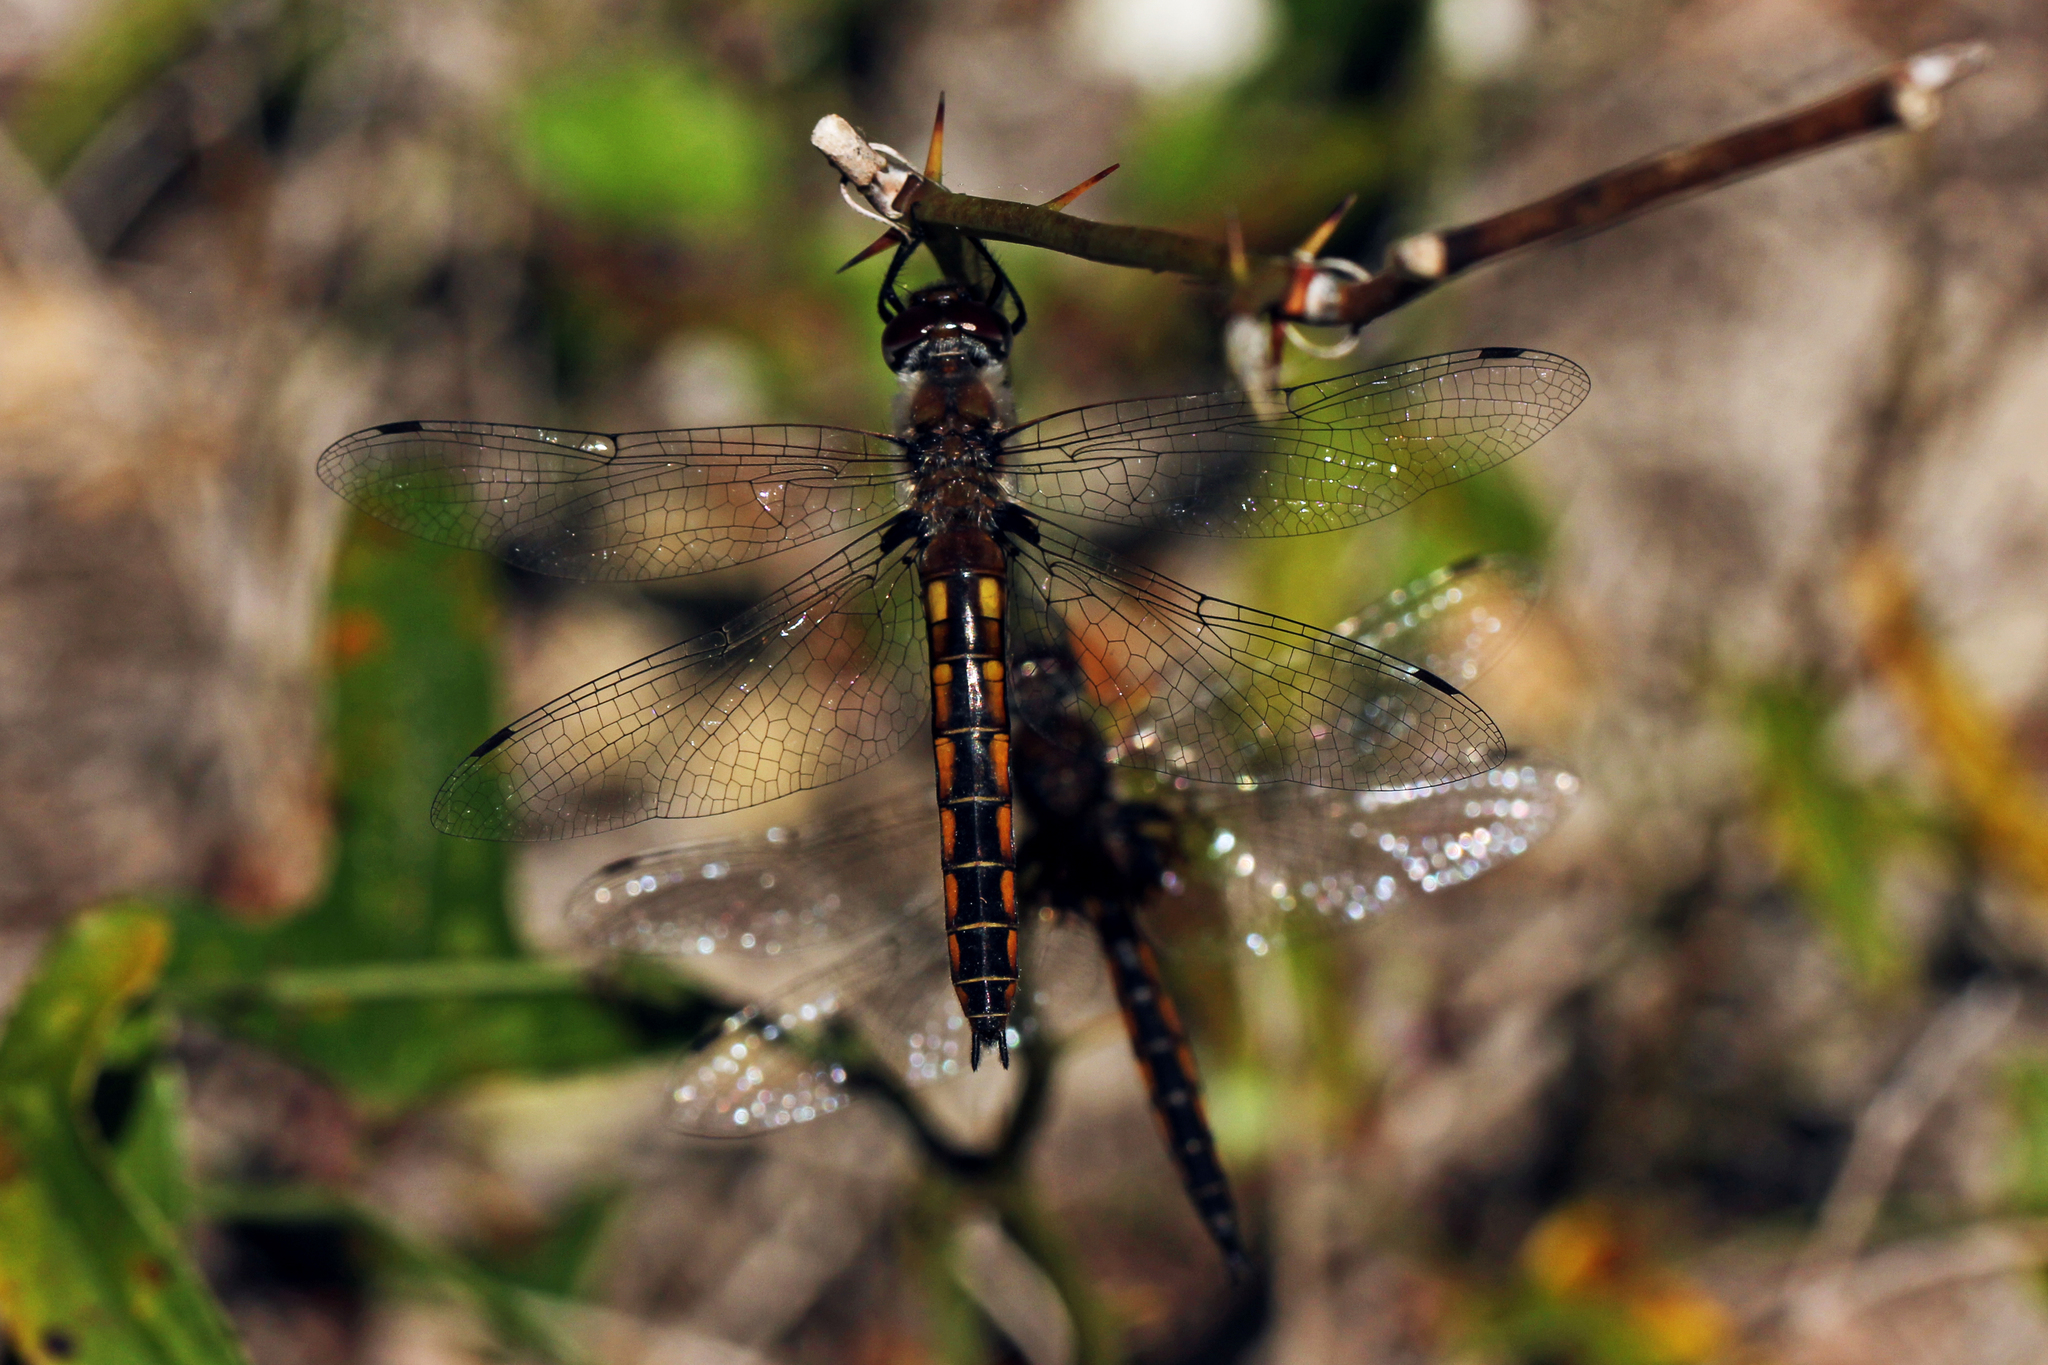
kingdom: Animalia
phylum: Arthropoda
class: Insecta
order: Odonata
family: Corduliidae
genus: Epitheca
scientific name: Epitheca cynosura
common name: Common baskettail
